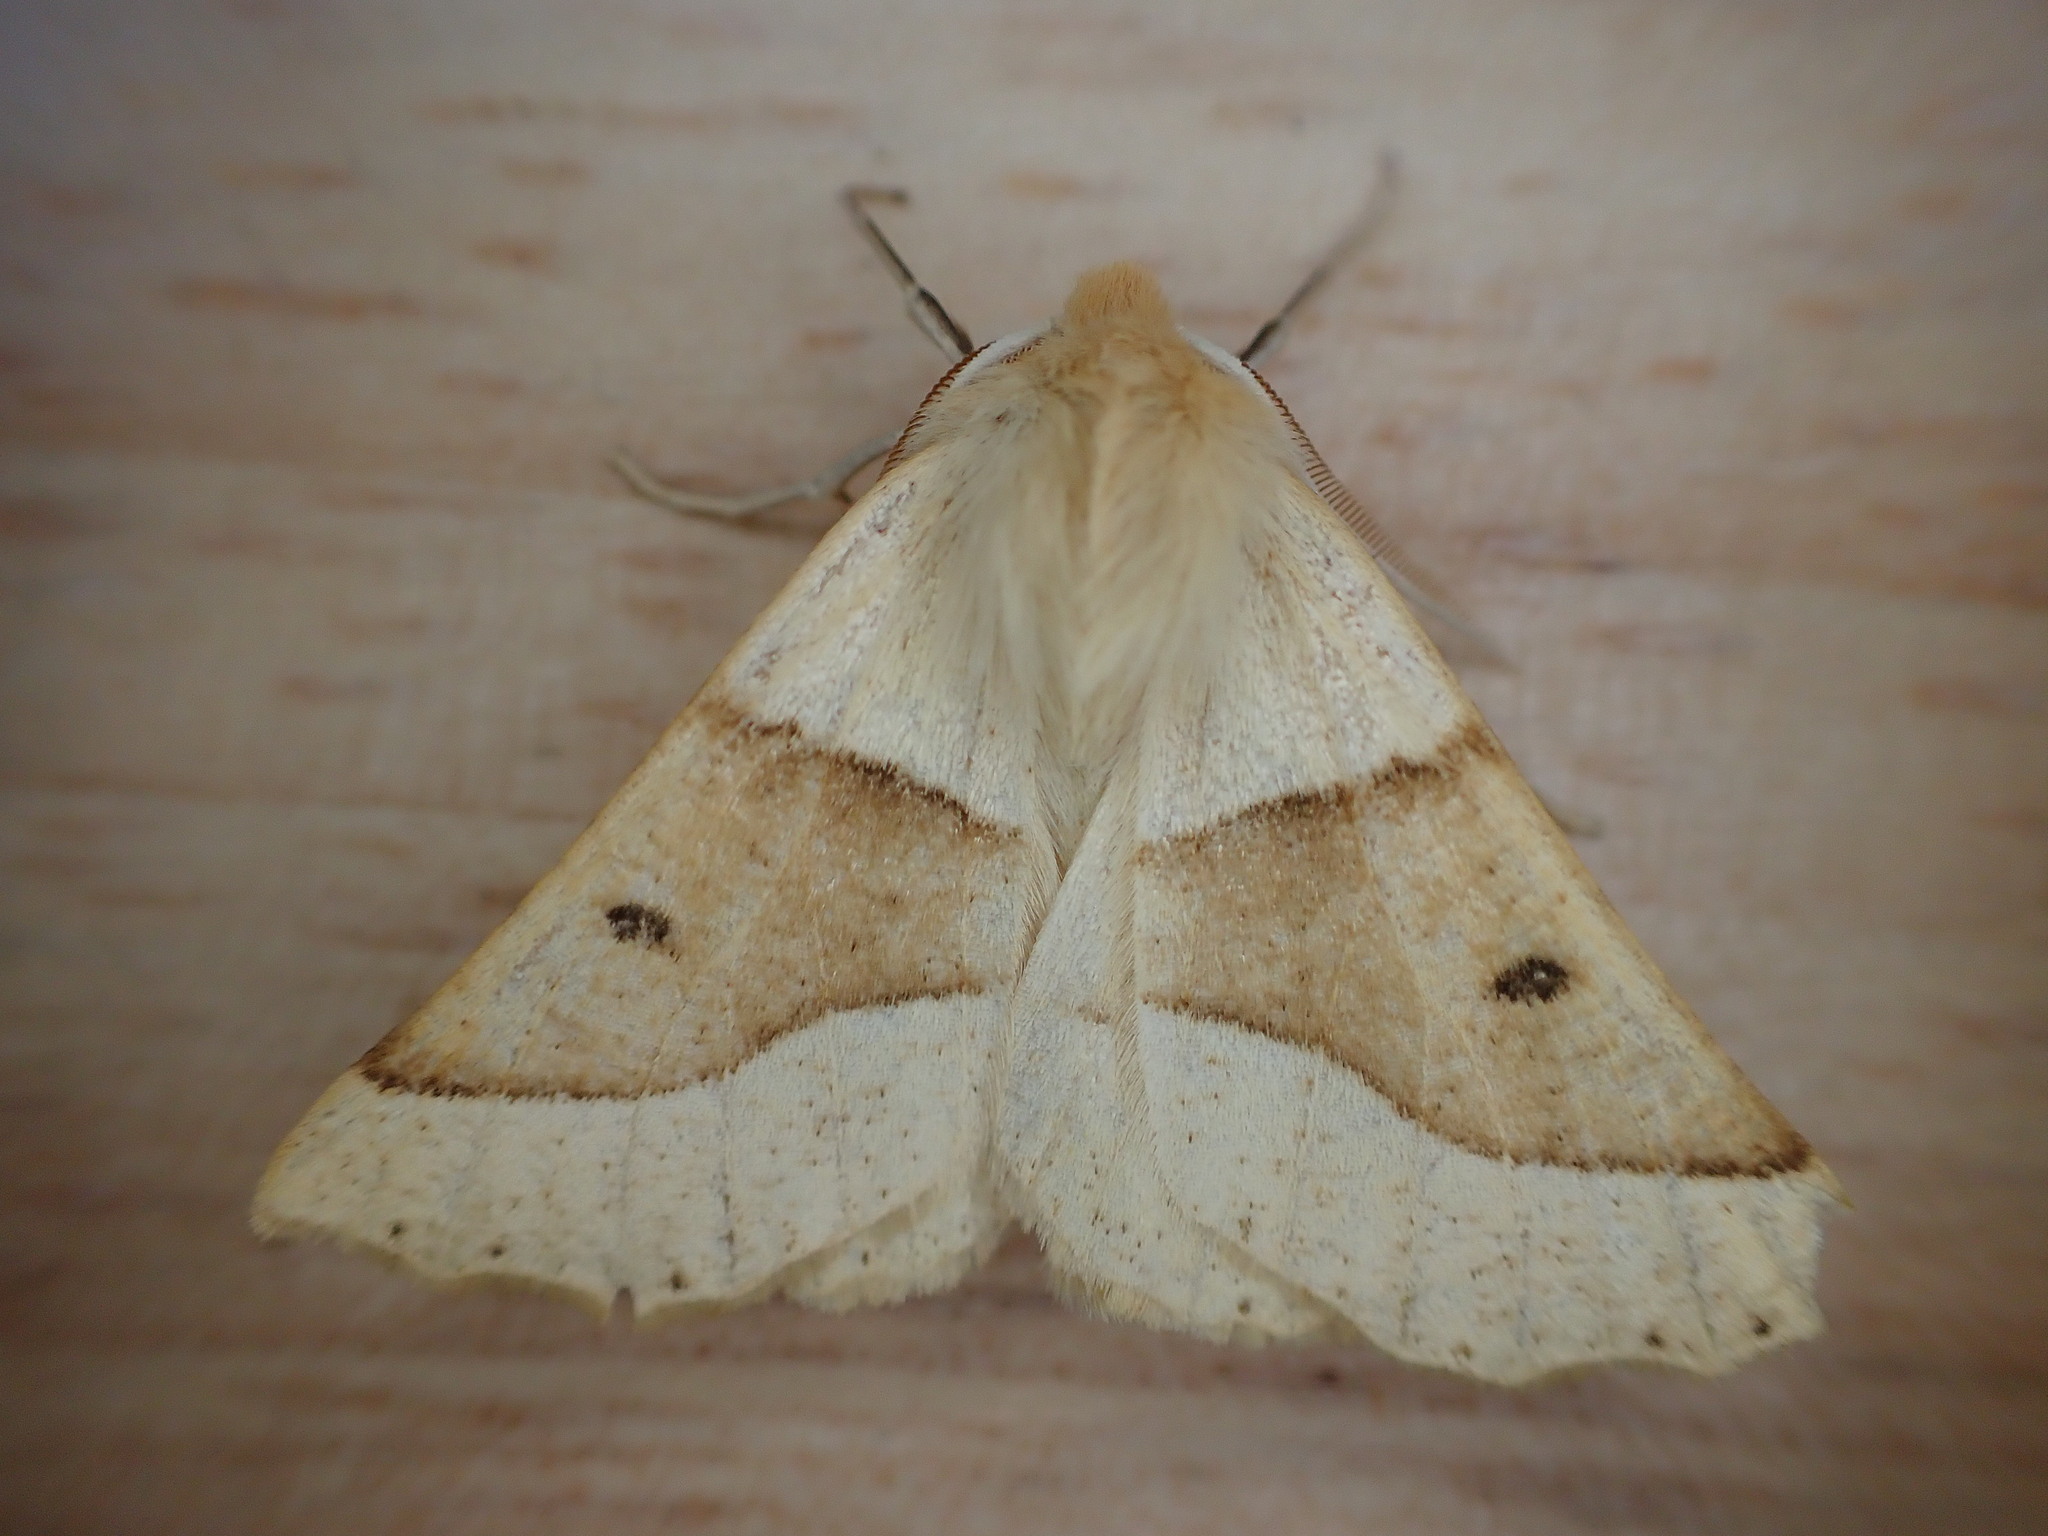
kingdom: Animalia
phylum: Arthropoda
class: Insecta
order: Lepidoptera
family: Geometridae
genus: Crocallis
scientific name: Crocallis elinguaria
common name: Scalloped oak
